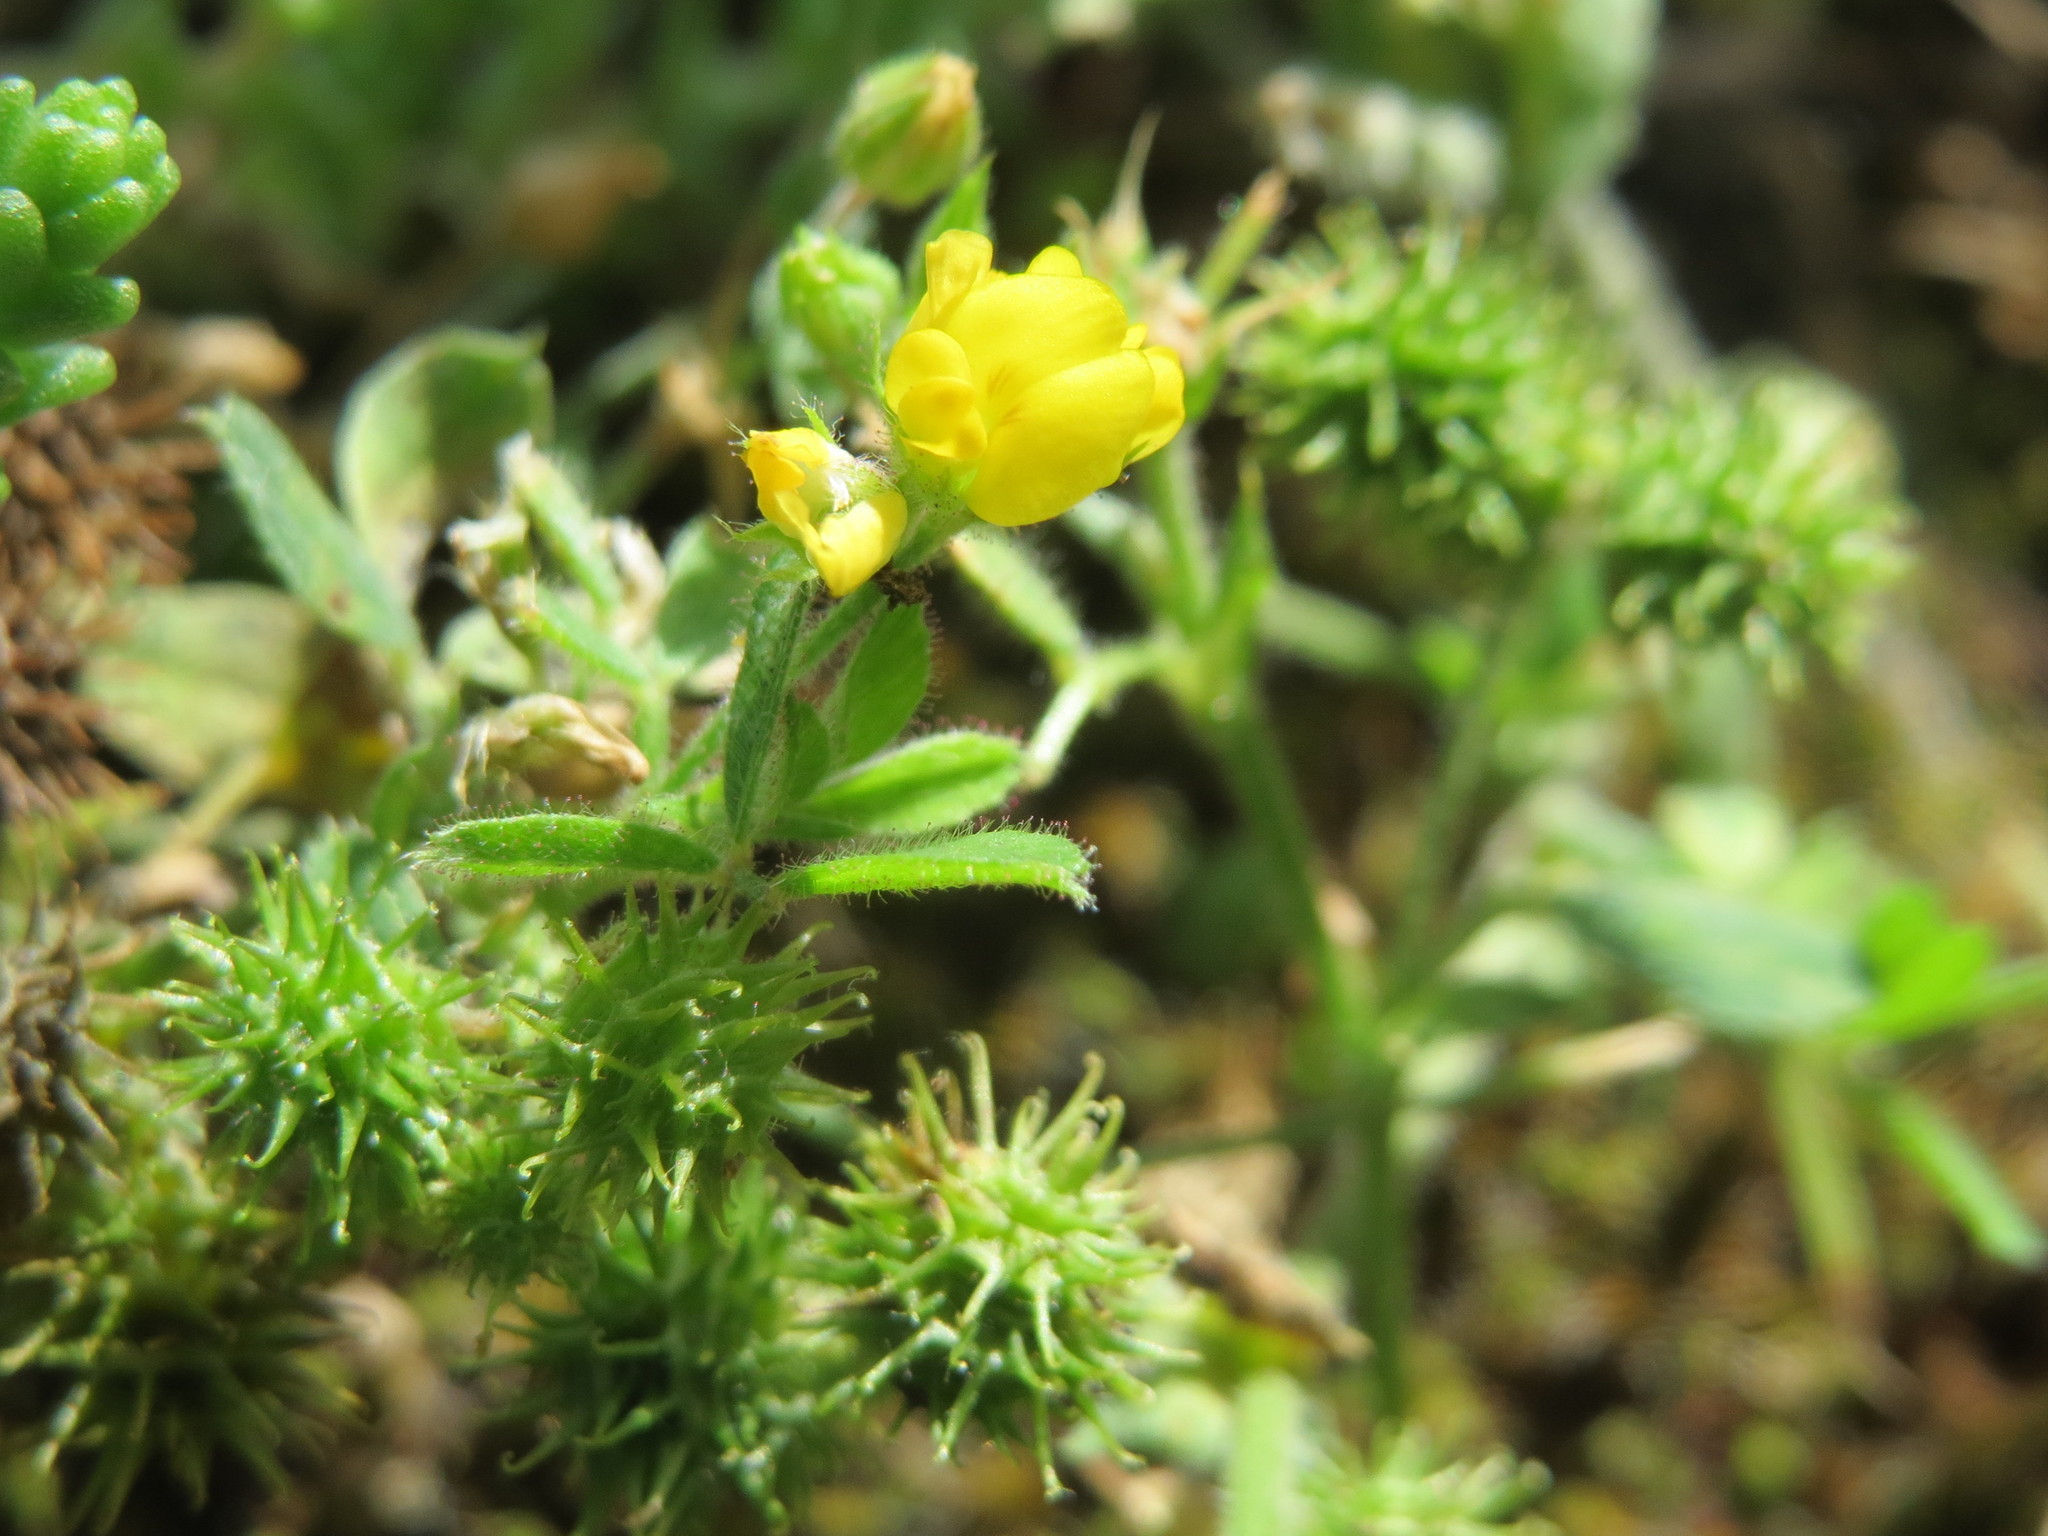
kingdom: Plantae
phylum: Tracheophyta
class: Magnoliopsida
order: Fabales
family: Fabaceae
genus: Medicago
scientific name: Medicago minima
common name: Little bur-clover
